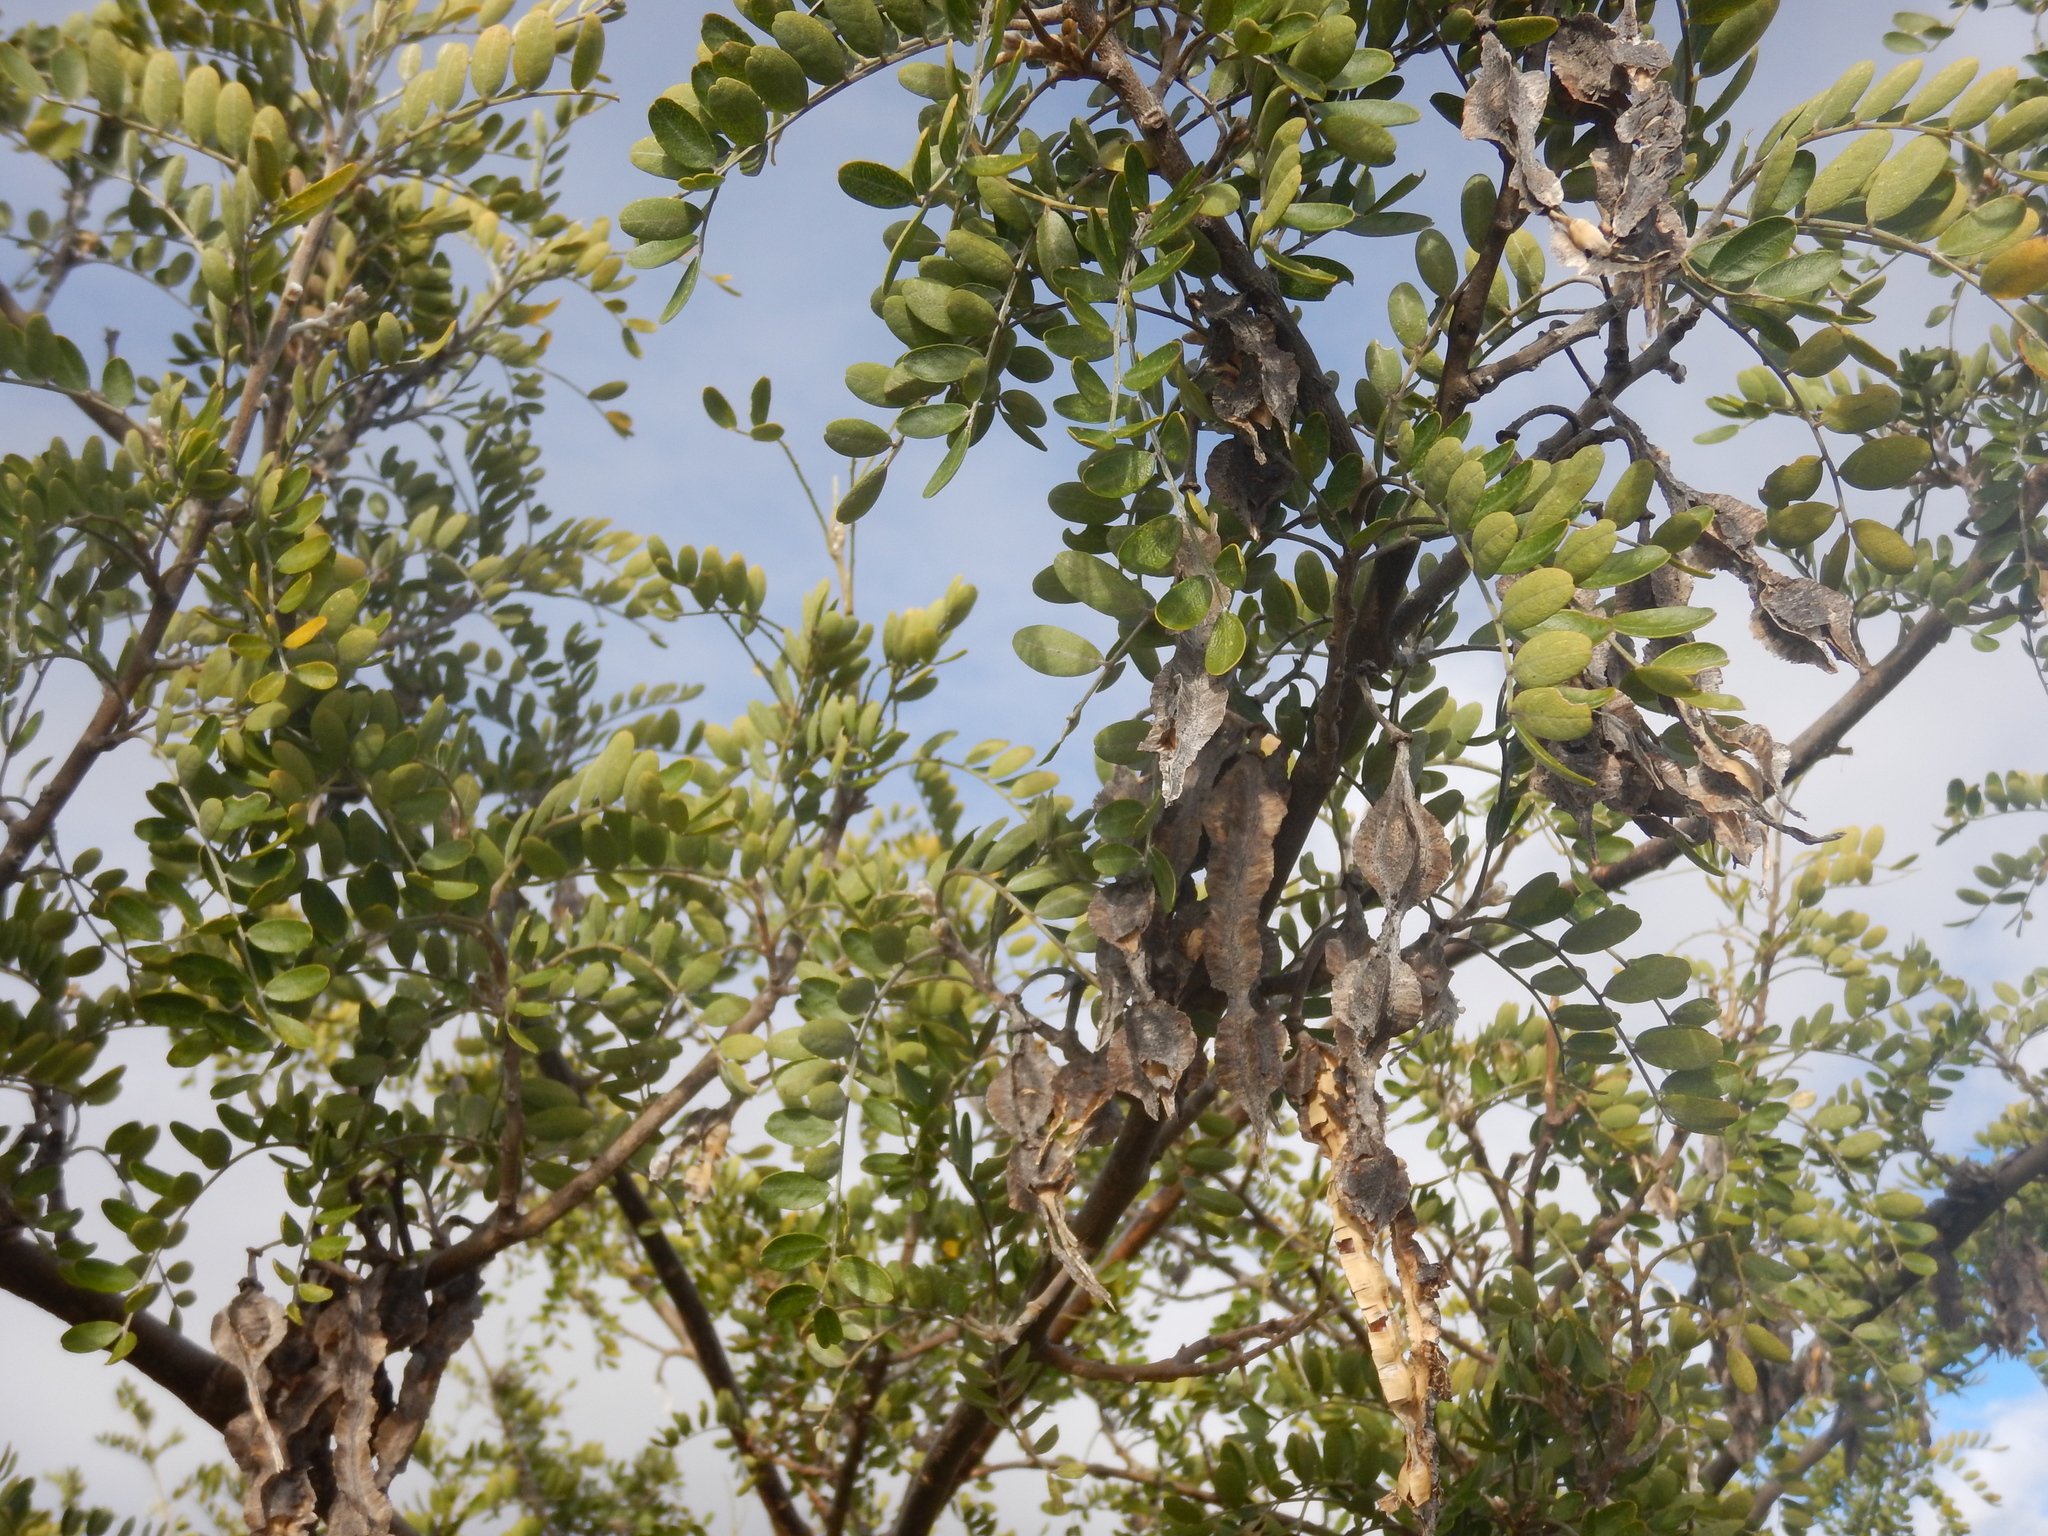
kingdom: Plantae
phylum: Tracheophyta
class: Magnoliopsida
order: Fabales
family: Fabaceae
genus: Sophora
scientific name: Sophora chrysophylla
